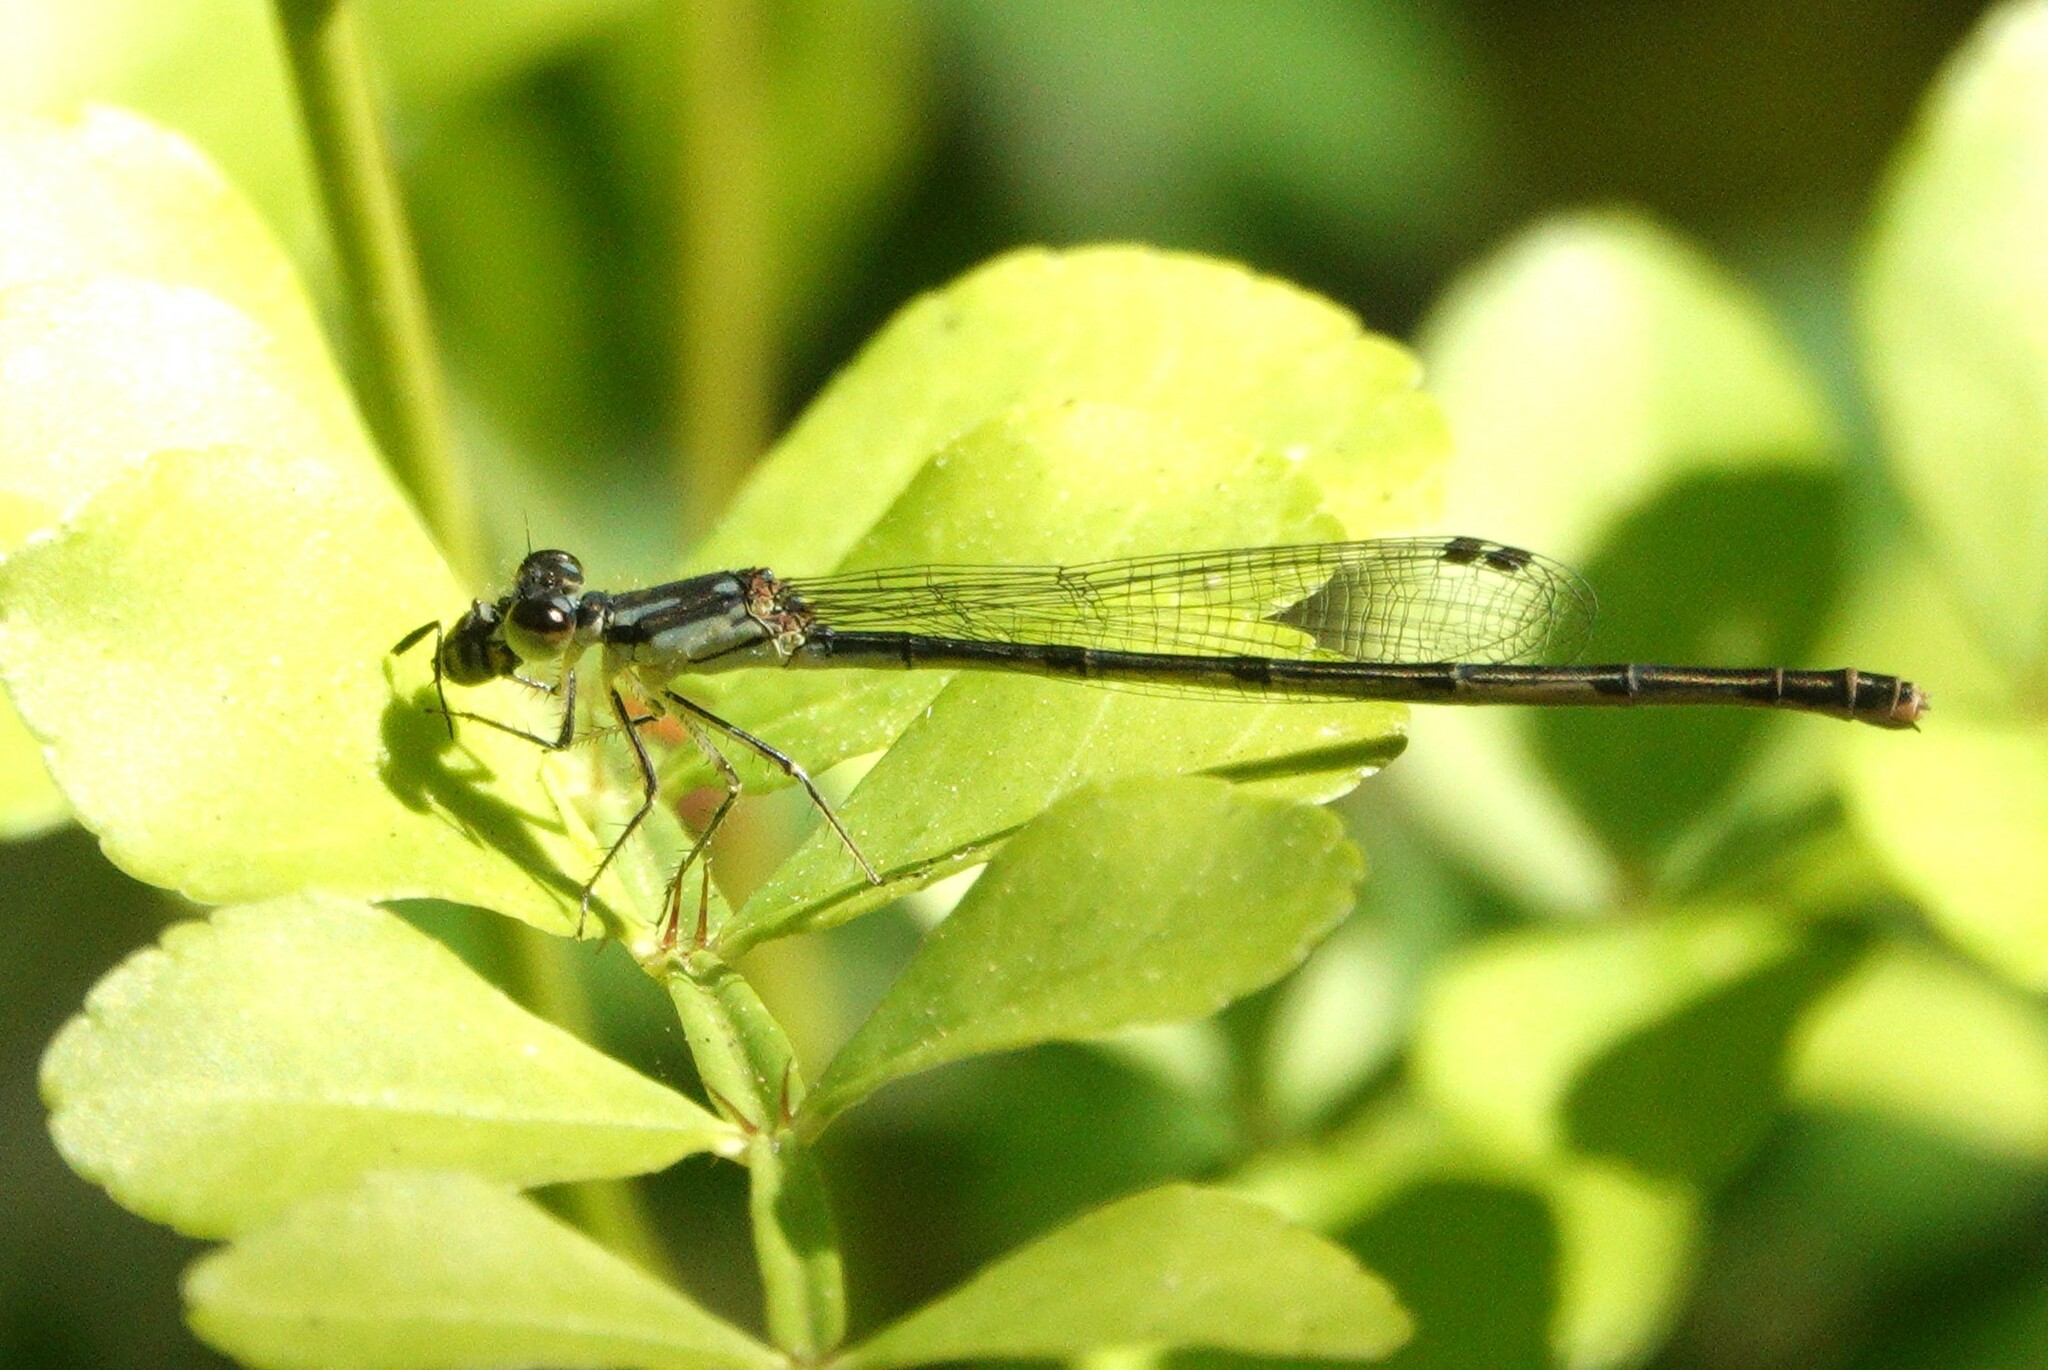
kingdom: Animalia
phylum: Arthropoda
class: Insecta
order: Odonata
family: Coenagrionidae
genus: Ischnura
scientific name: Ischnura posita
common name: Fragile forktail
